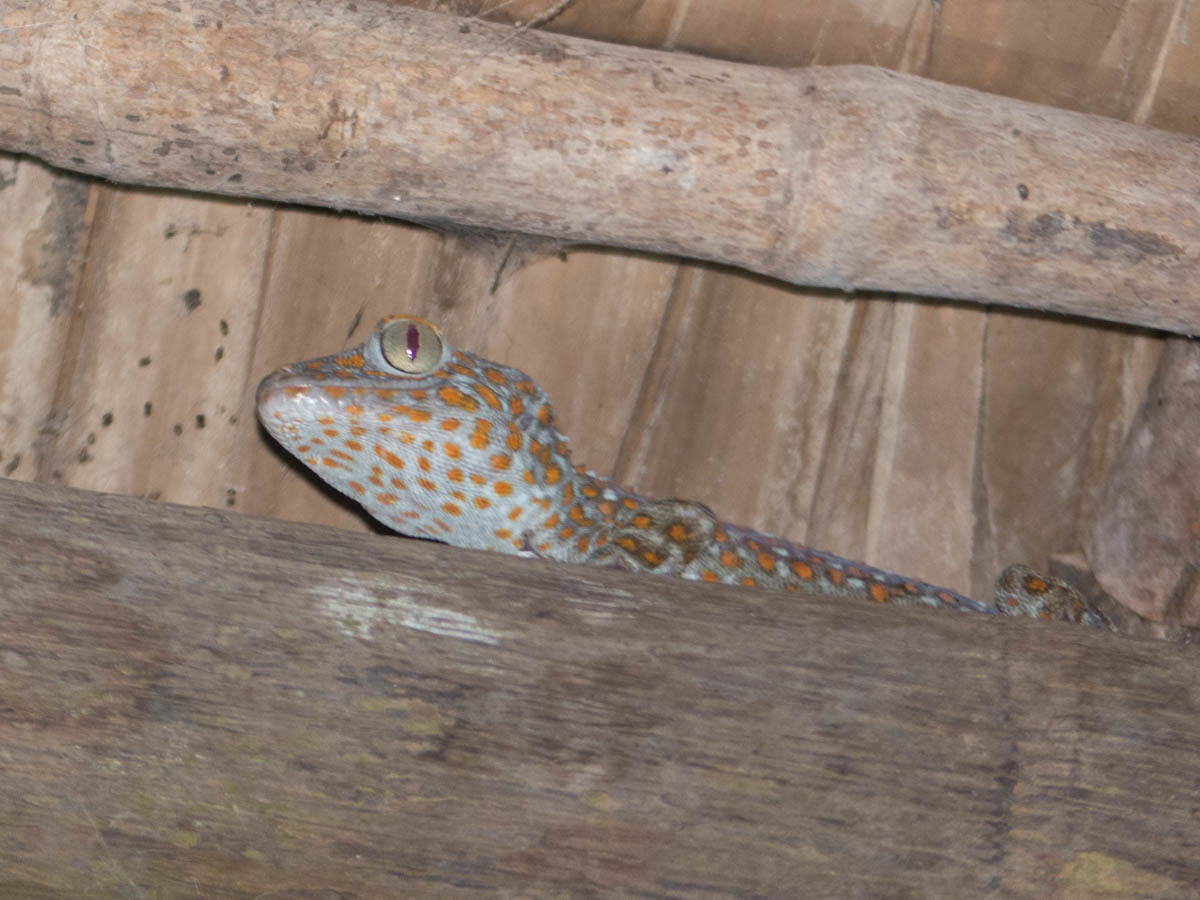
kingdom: Animalia
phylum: Chordata
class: Squamata
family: Gekkonidae
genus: Gekko
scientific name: Gekko gecko
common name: Tokay gecko
